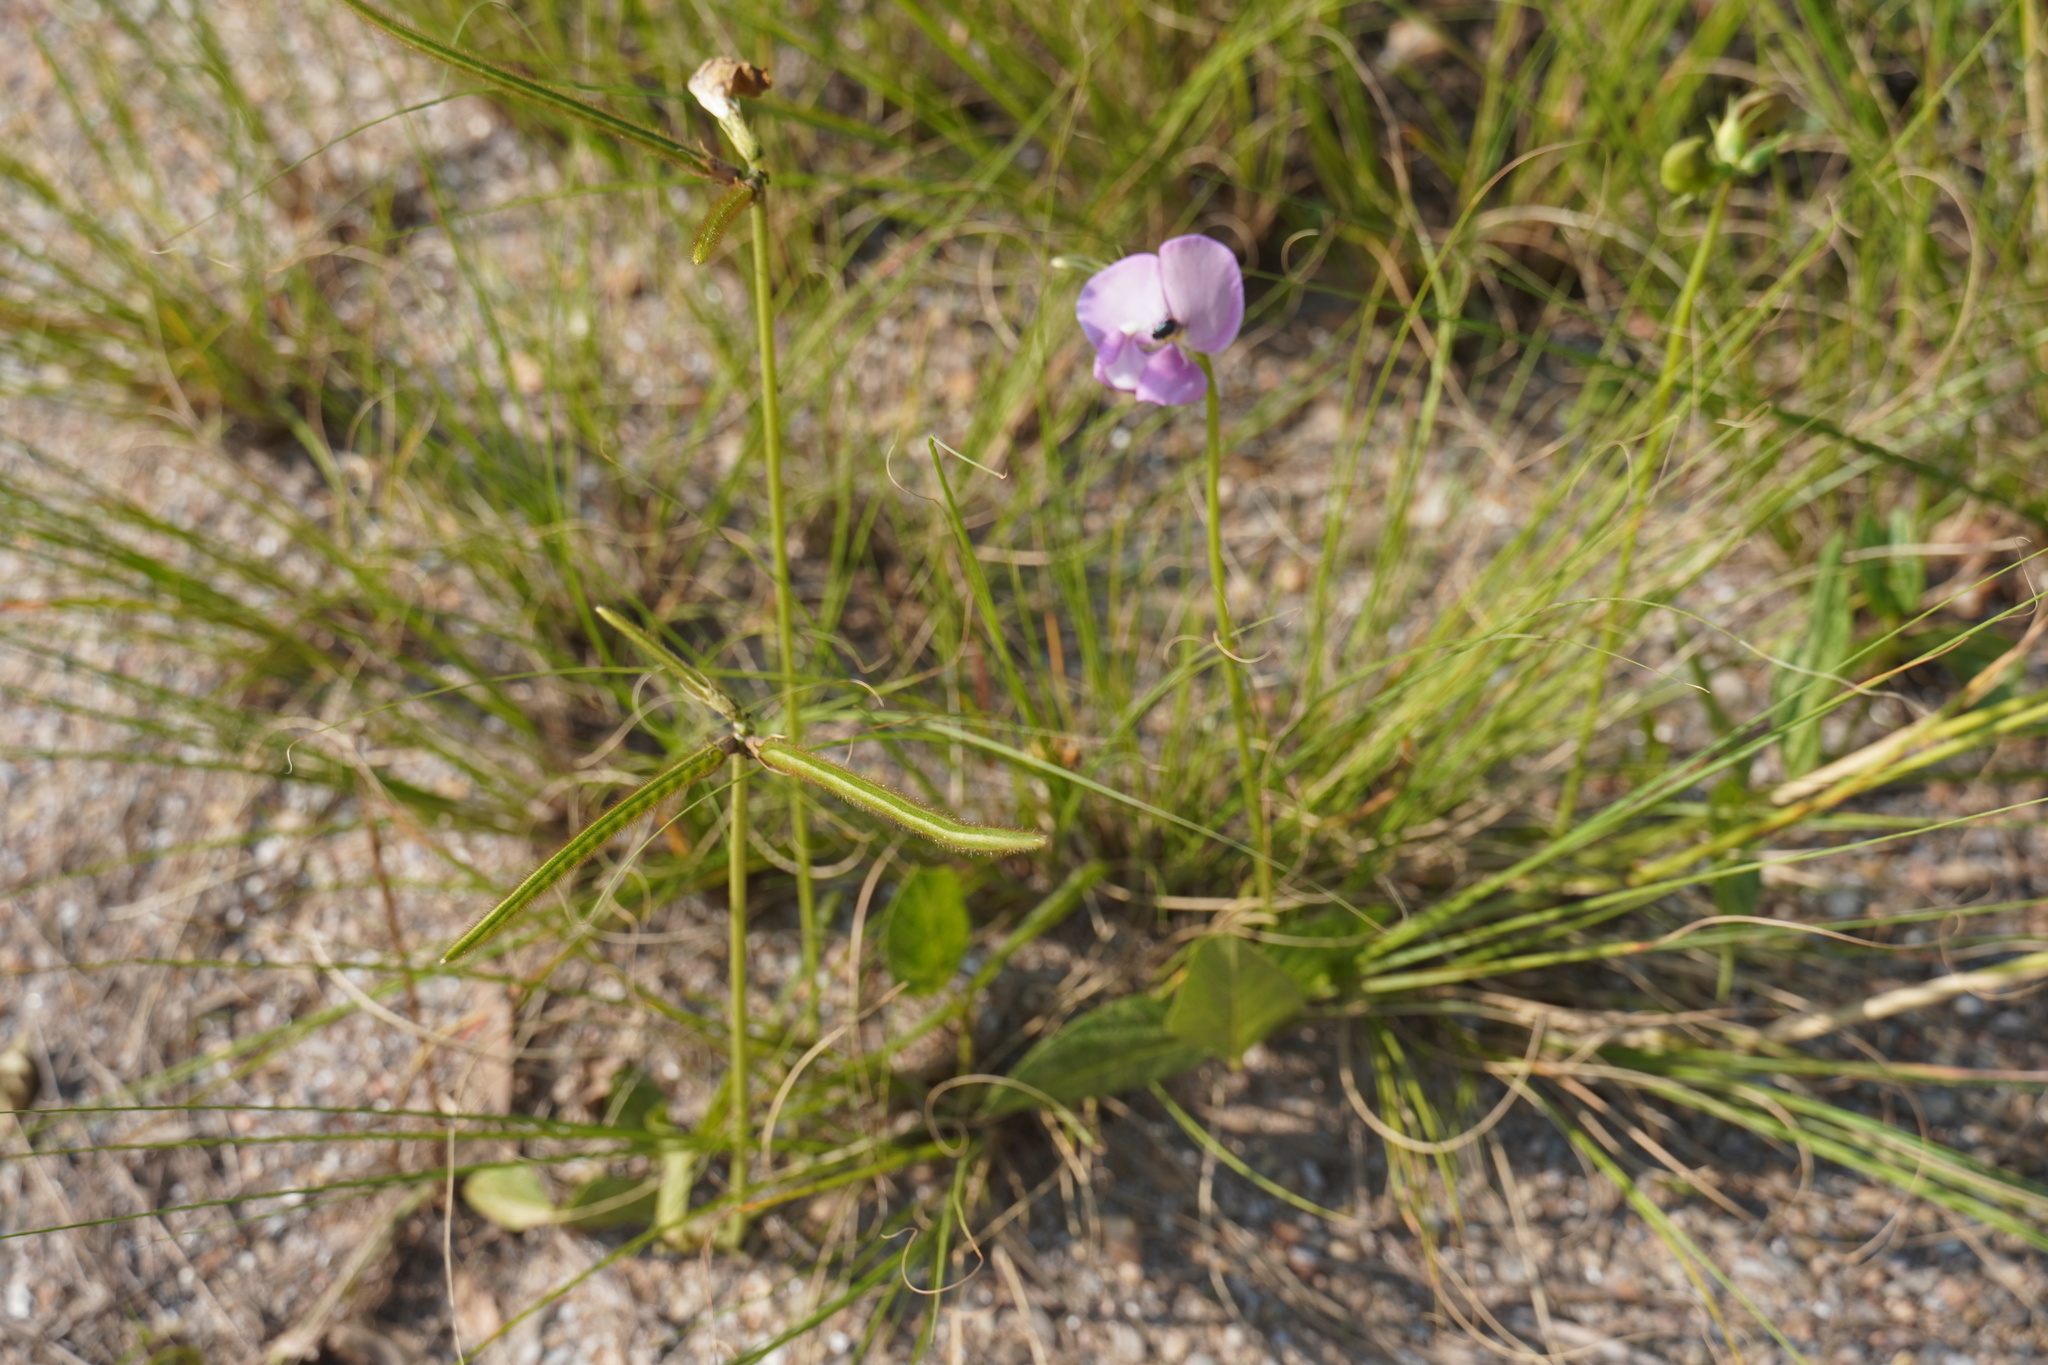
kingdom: Plantae
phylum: Tracheophyta
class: Magnoliopsida
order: Fabales
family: Fabaceae
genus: Vigna
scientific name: Vigna vexillata
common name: Zombi pea
